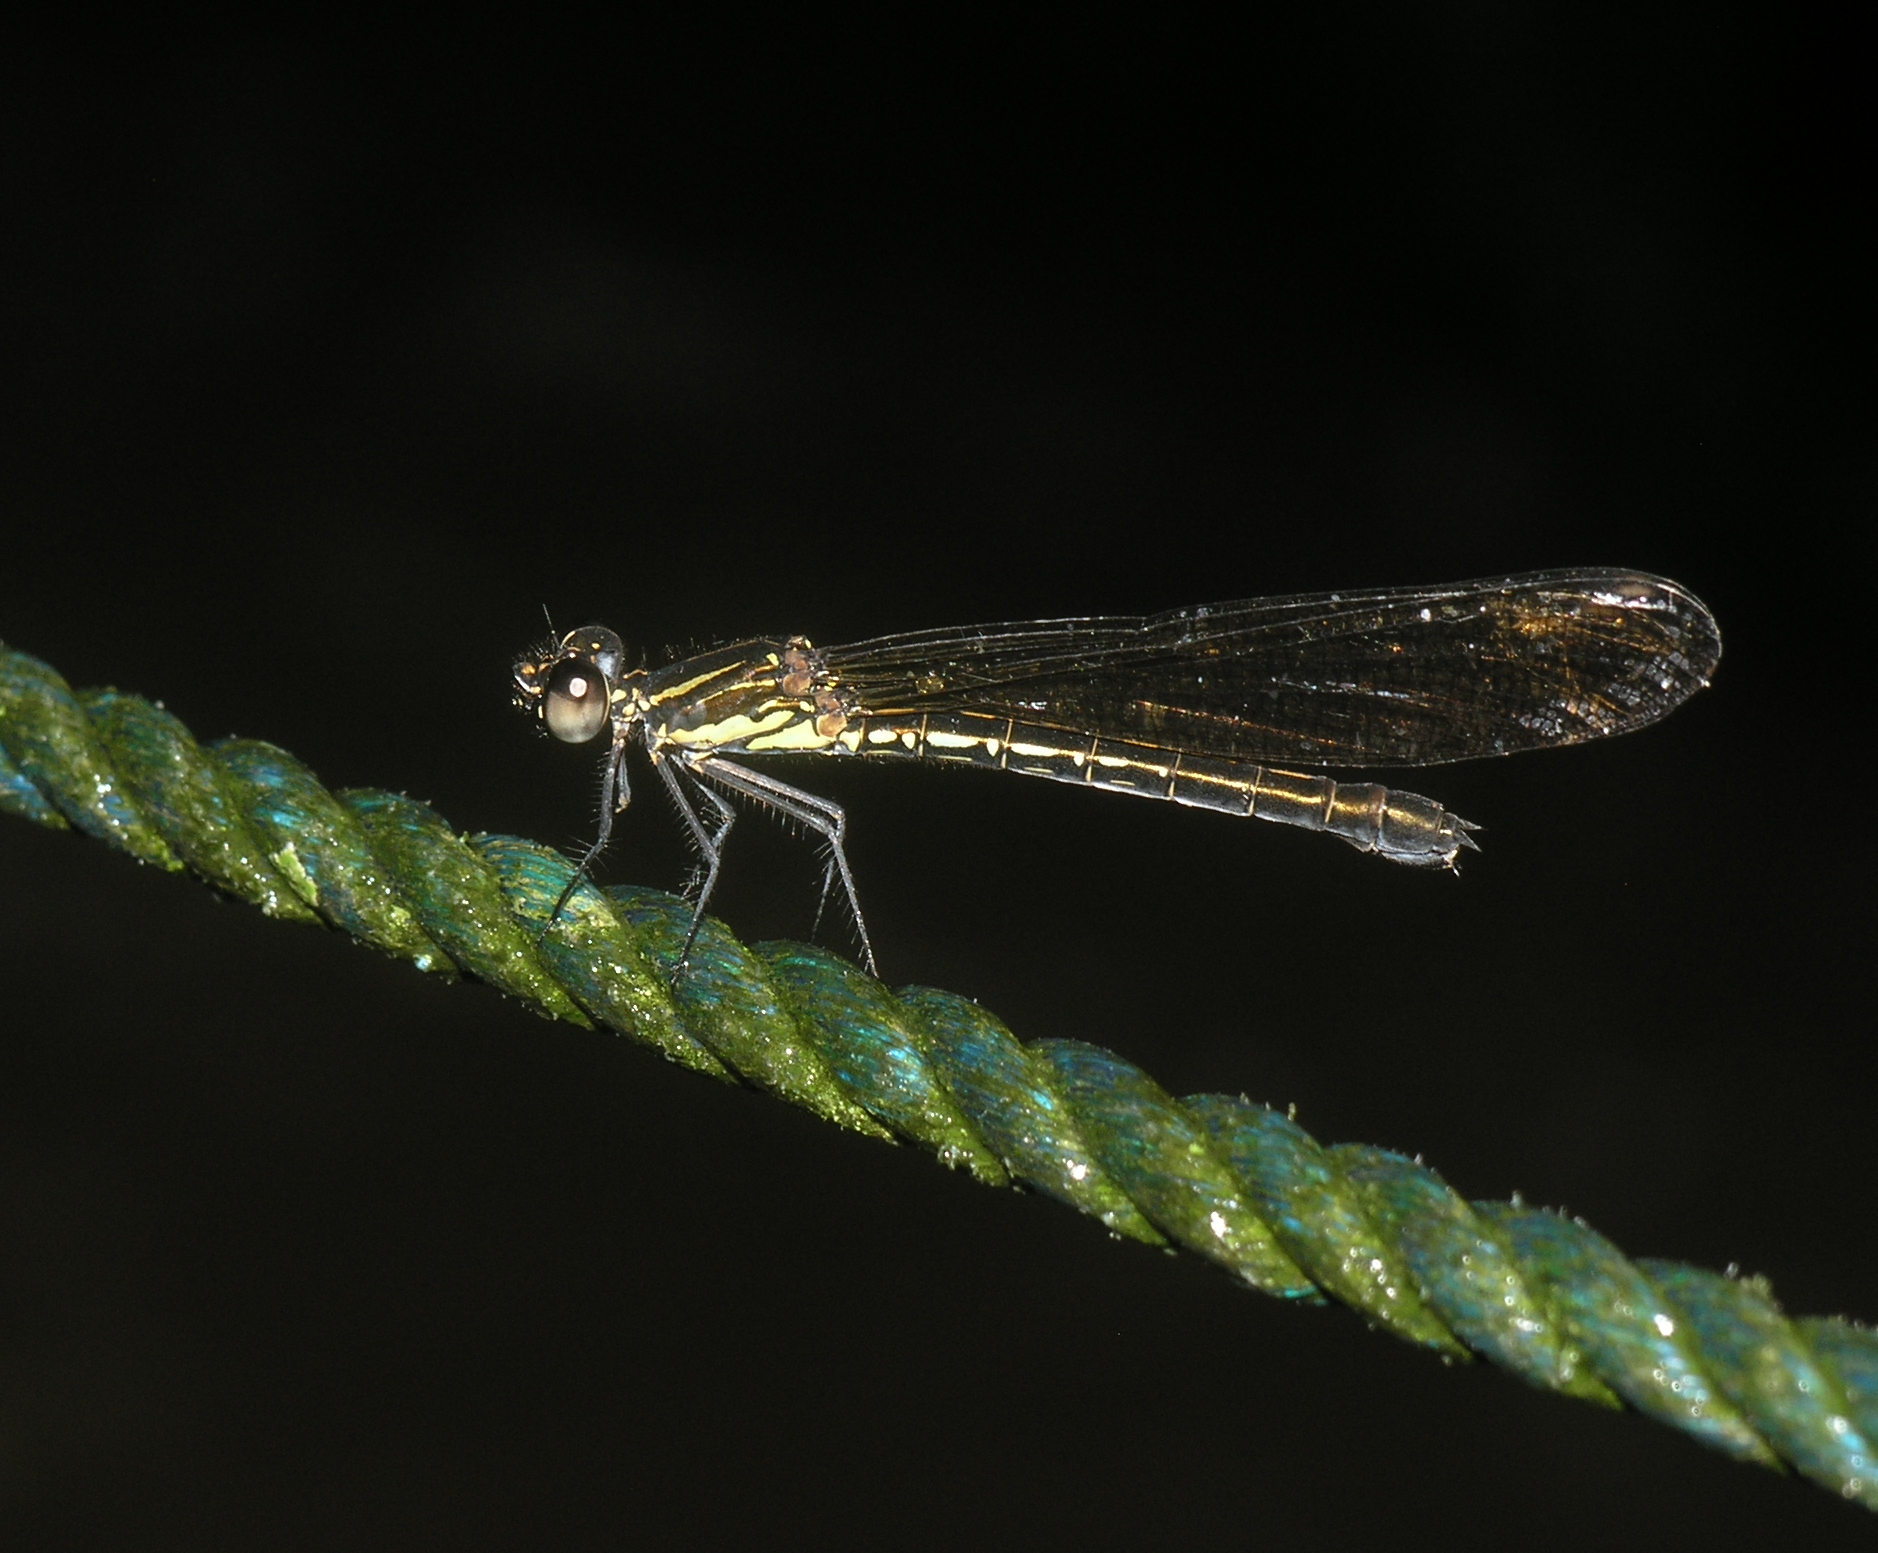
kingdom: Animalia
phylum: Arthropoda
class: Insecta
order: Odonata
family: Chlorocyphidae
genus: Heliocypha
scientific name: Heliocypha fenestrata
